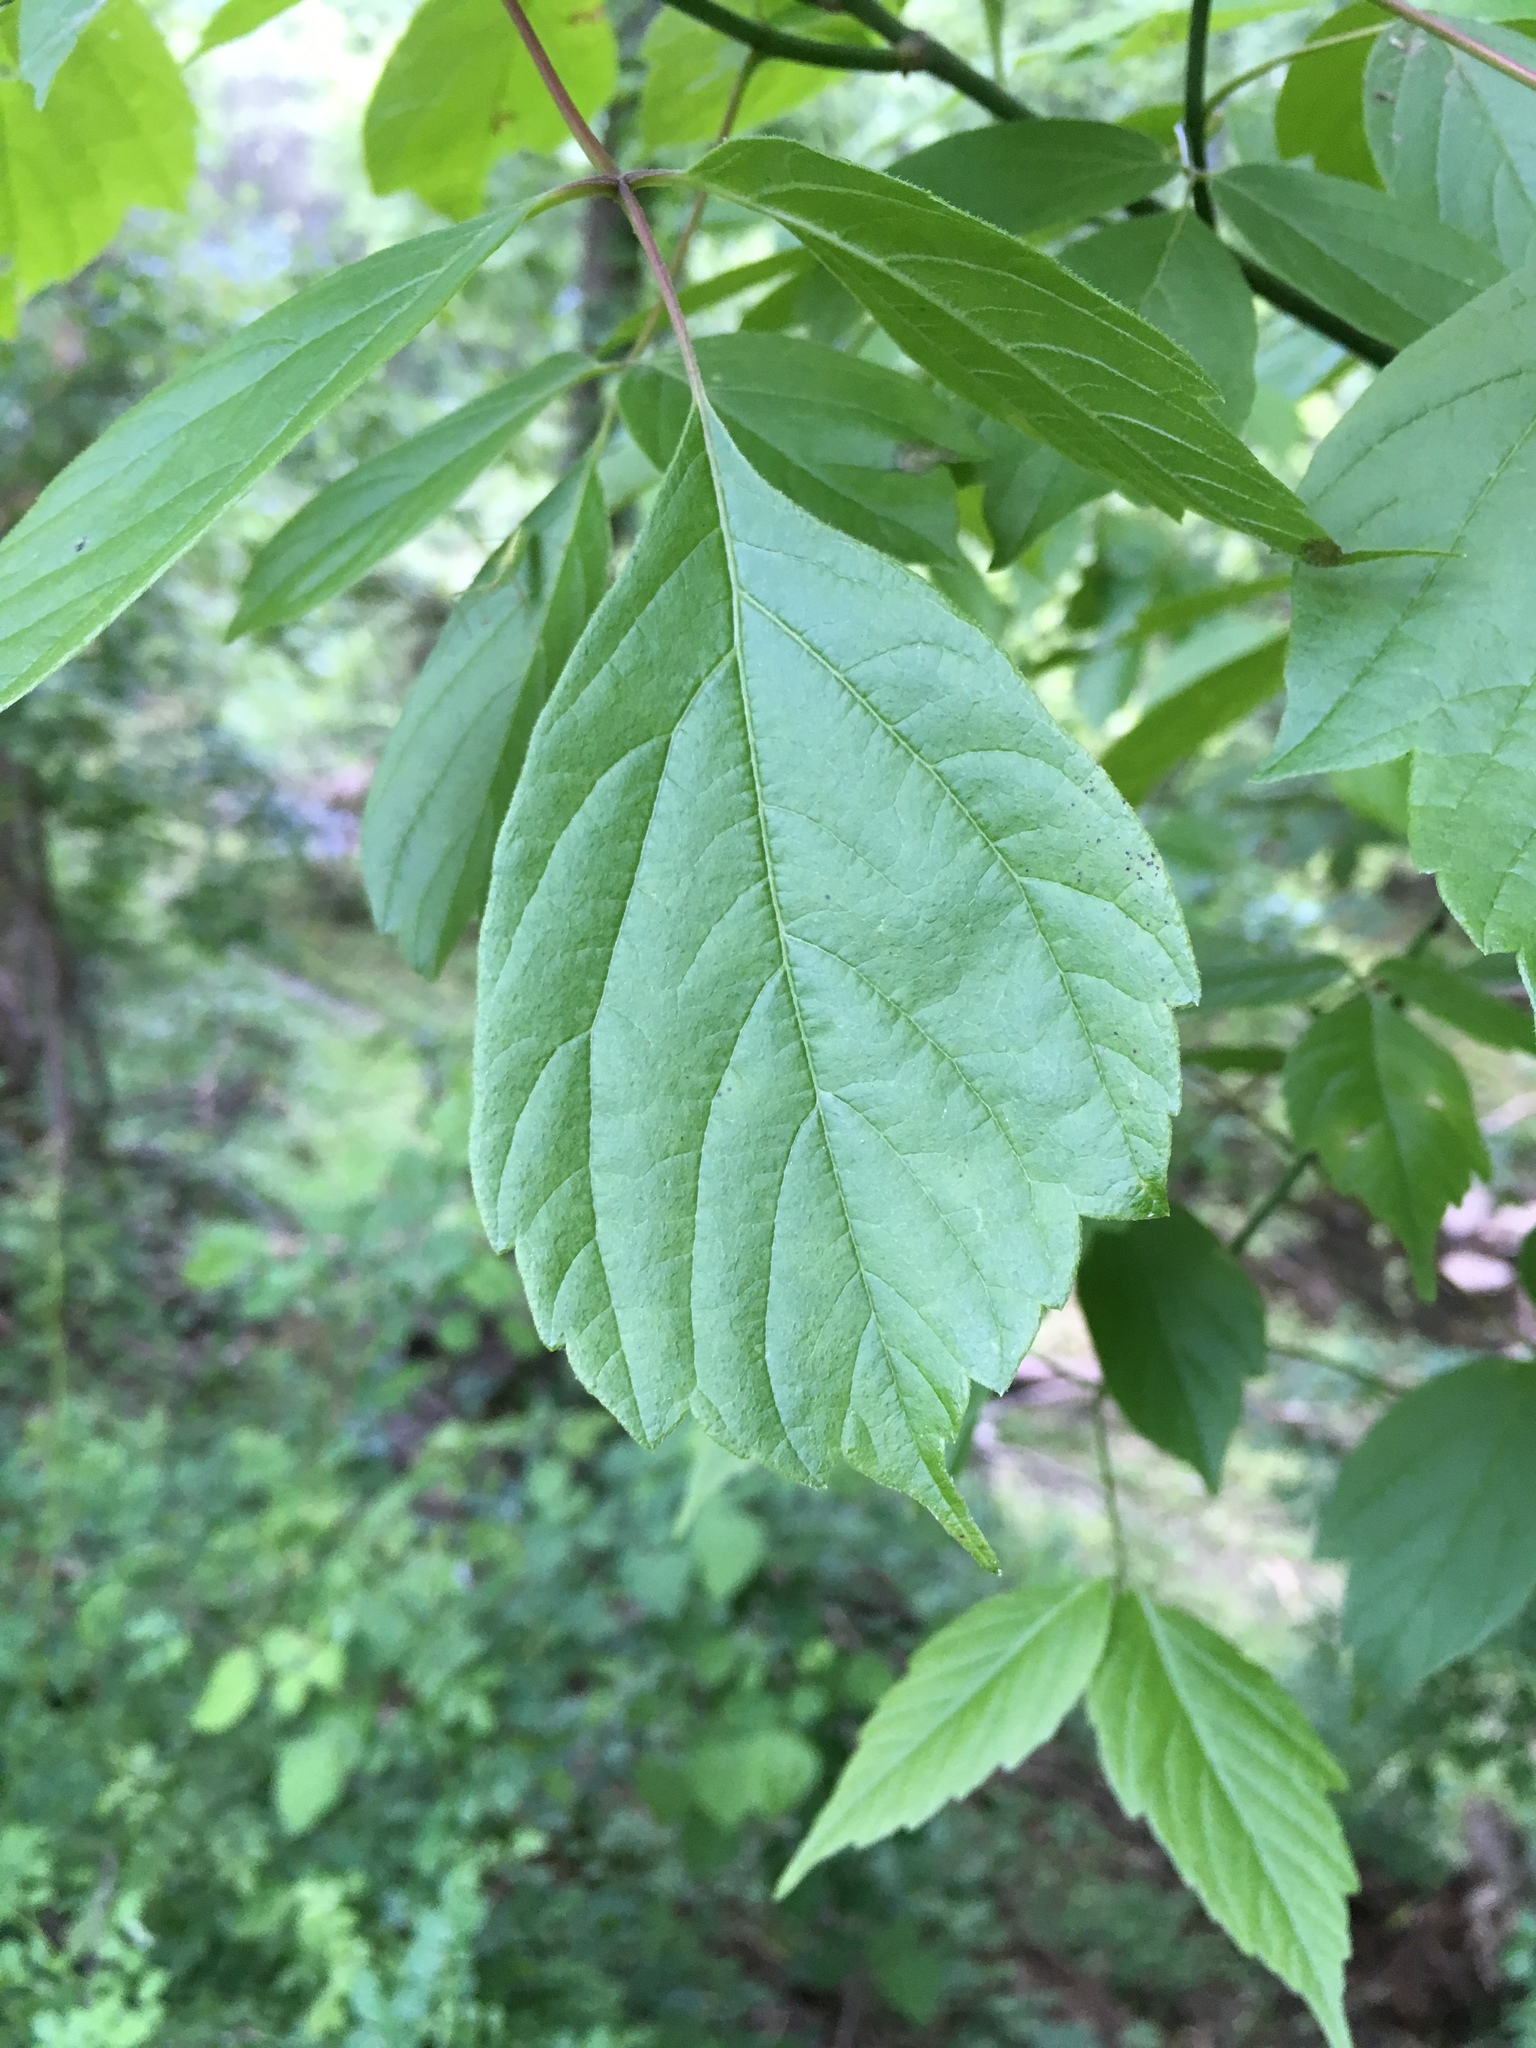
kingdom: Plantae
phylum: Tracheophyta
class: Magnoliopsida
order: Sapindales
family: Sapindaceae
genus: Acer
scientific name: Acer negundo
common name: Ashleaf maple
